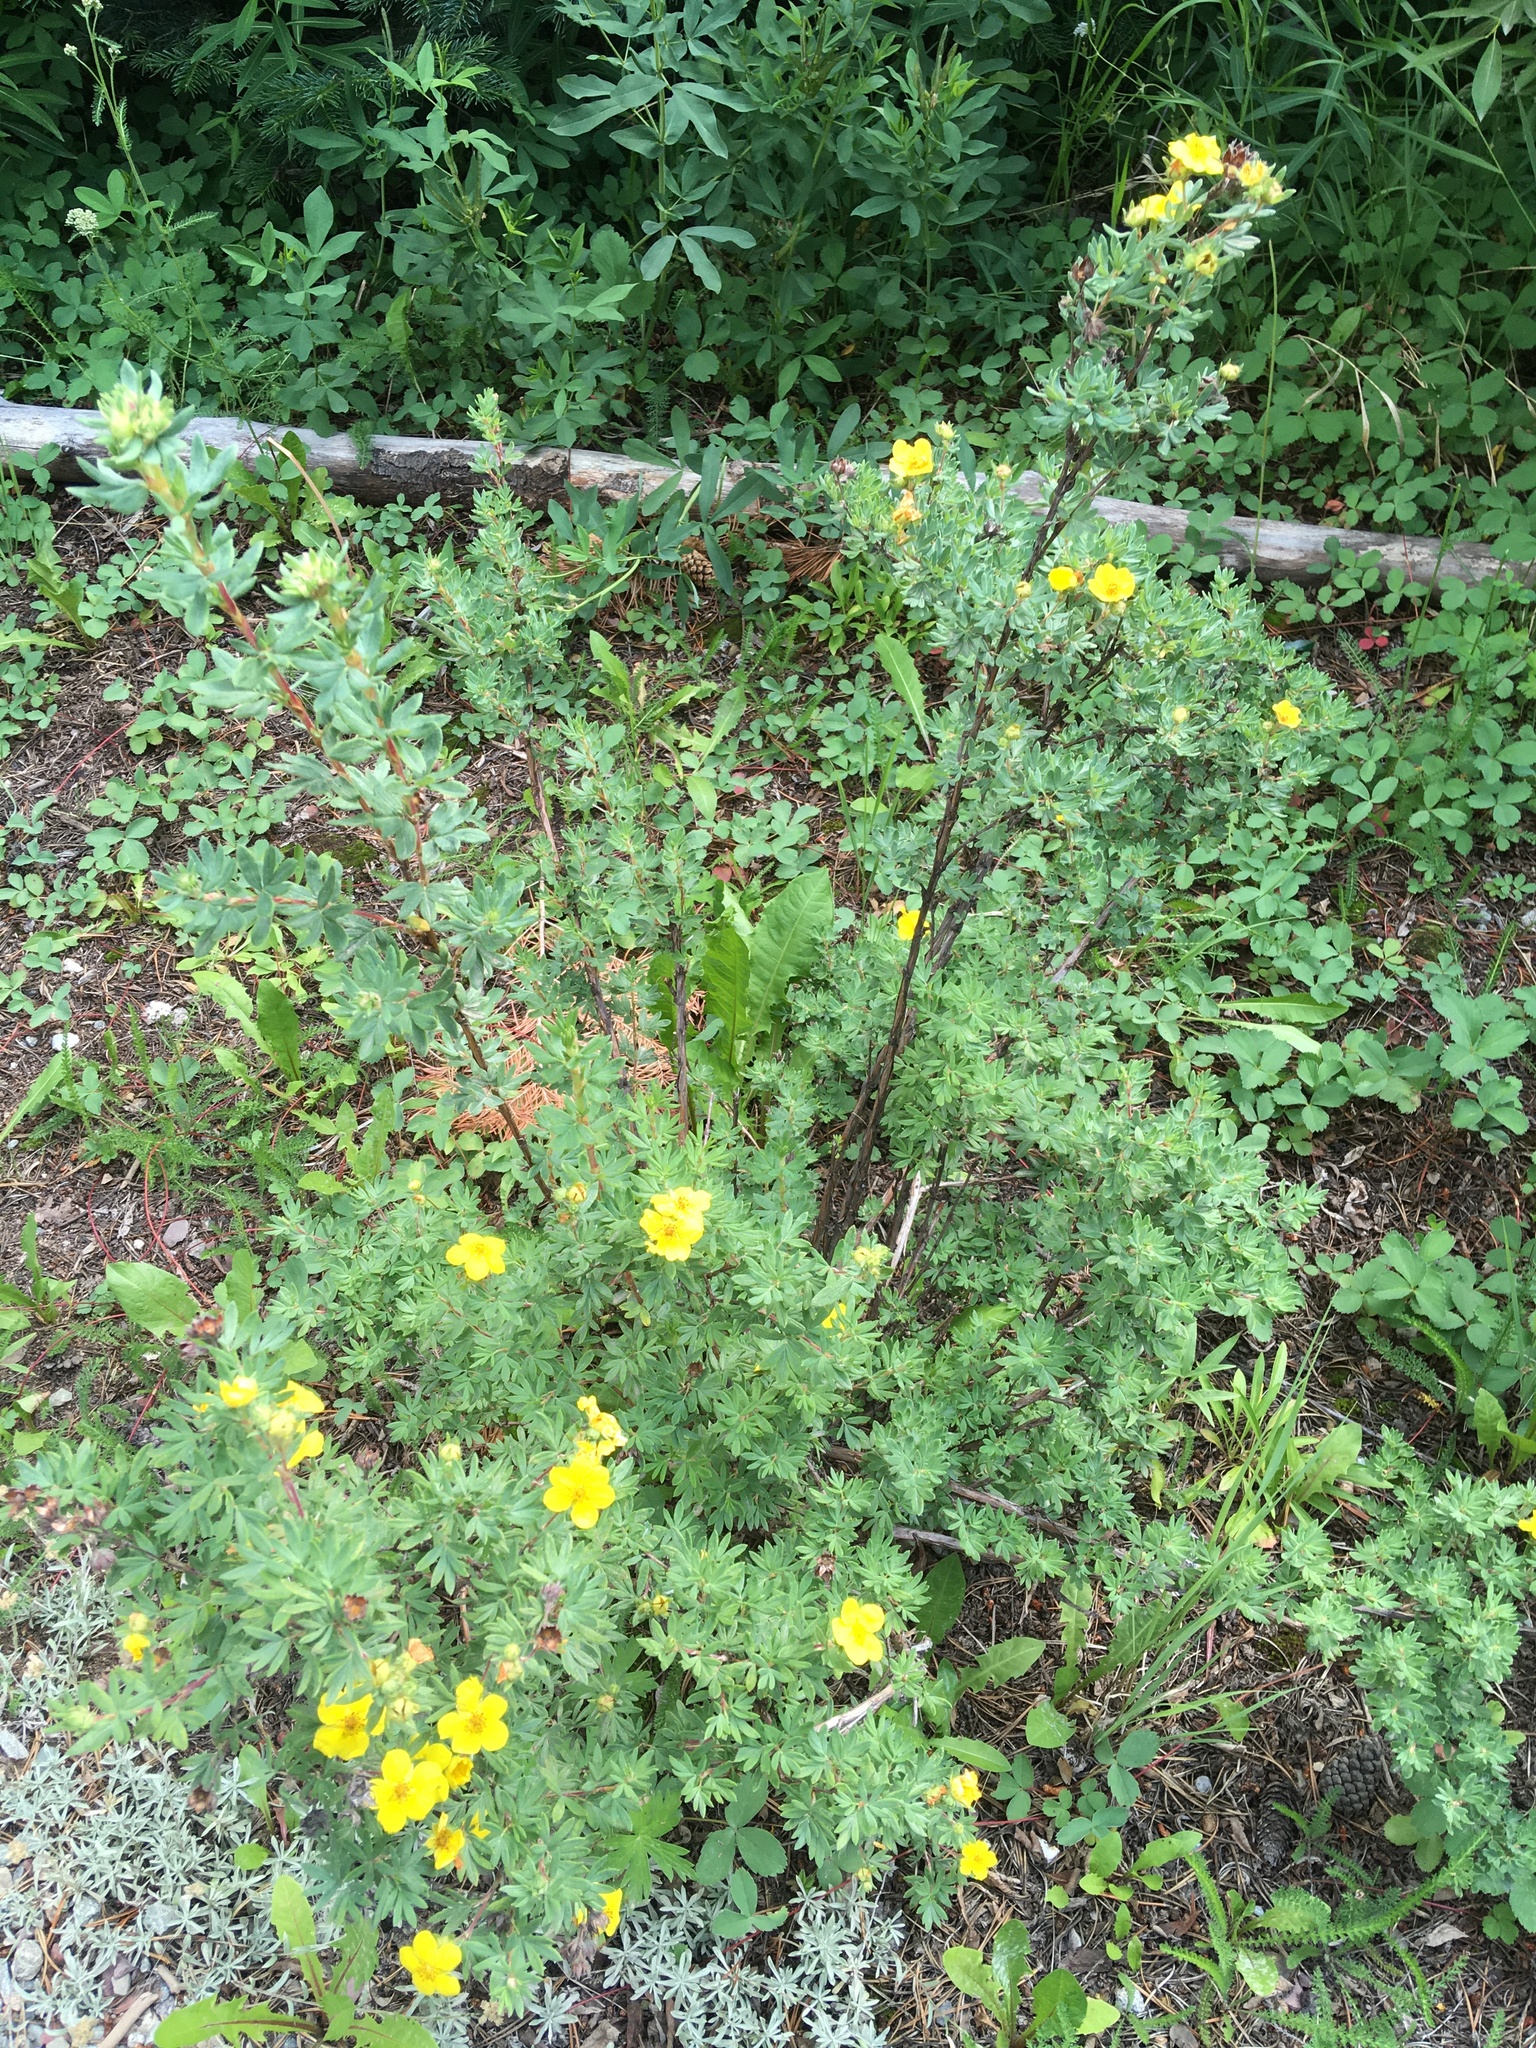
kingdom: Plantae
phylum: Tracheophyta
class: Magnoliopsida
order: Rosales
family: Rosaceae
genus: Dasiphora
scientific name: Dasiphora fruticosa
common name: Shrubby cinquefoil
